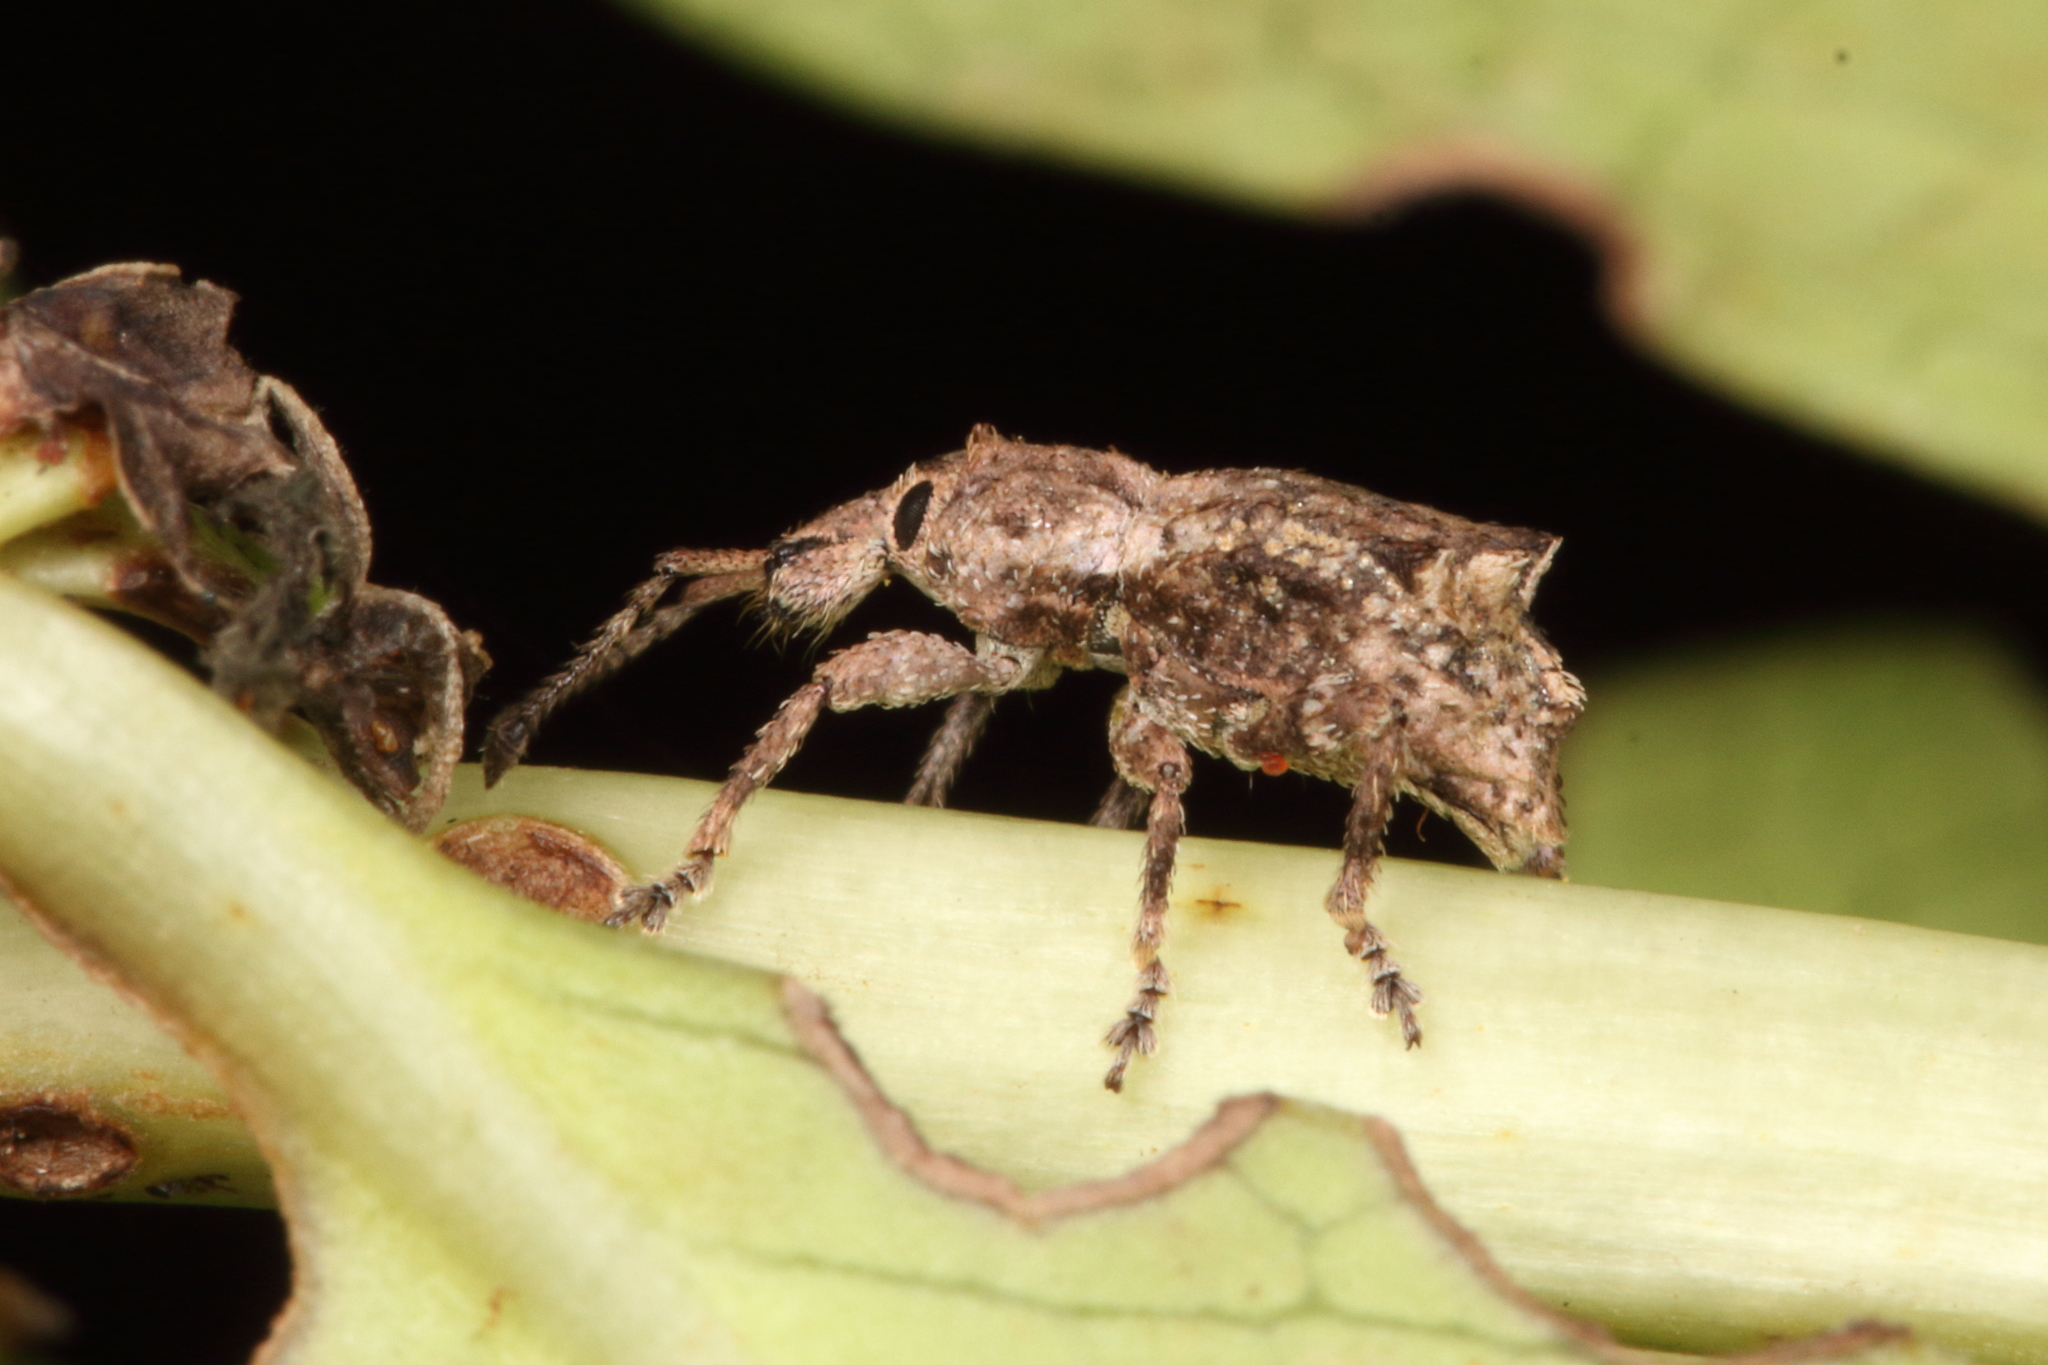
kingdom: Animalia
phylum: Arthropoda
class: Insecta
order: Coleoptera
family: Curculionidae
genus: Chalepistes
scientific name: Chalepistes inaequalis
